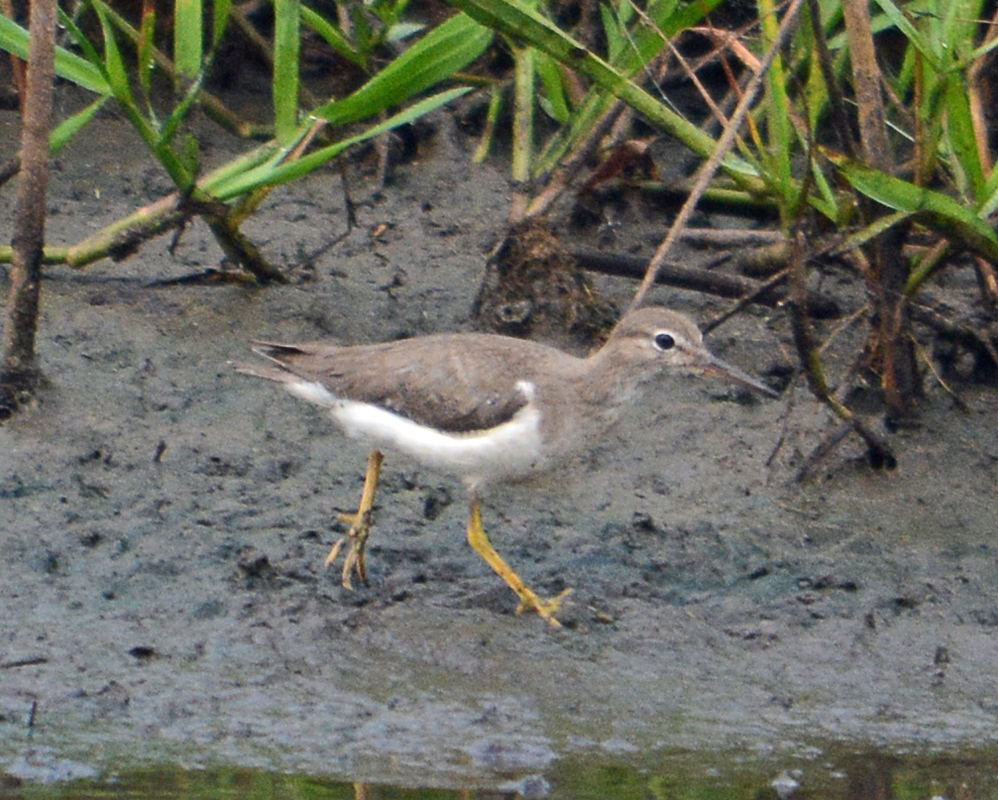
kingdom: Animalia
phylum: Chordata
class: Aves
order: Charadriiformes
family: Scolopacidae
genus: Actitis
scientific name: Actitis macularius
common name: Spotted sandpiper
